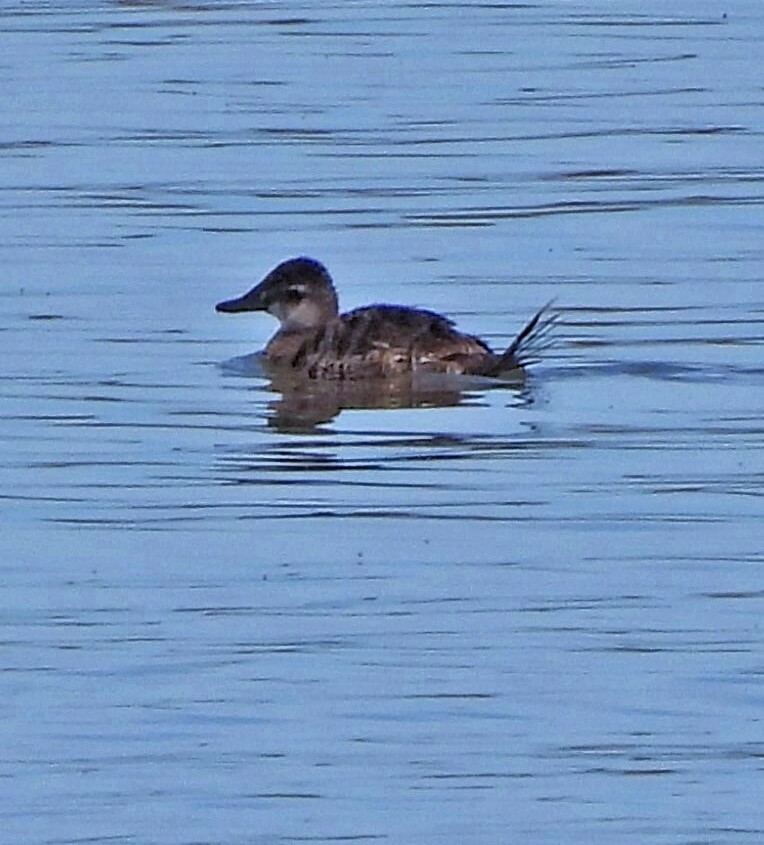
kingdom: Animalia
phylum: Chordata
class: Aves
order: Anseriformes
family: Anatidae
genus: Oxyura
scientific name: Oxyura vittata
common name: Lake duck
